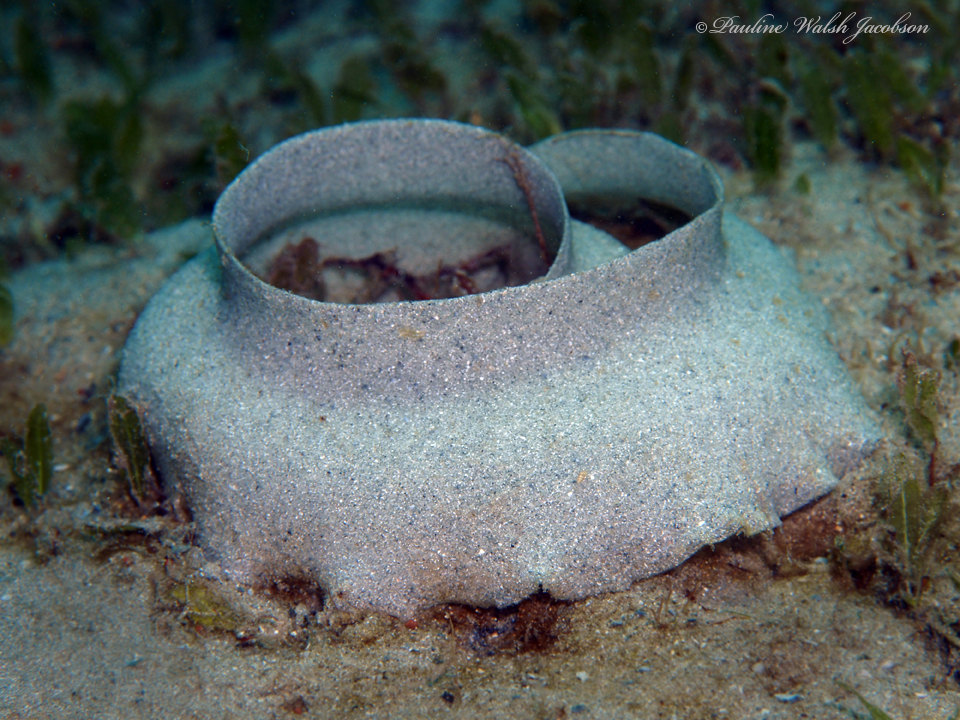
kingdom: Animalia
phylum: Mollusca
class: Gastropoda
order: Littorinimorpha
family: Naticidae
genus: Naticarius
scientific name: Naticarius canrena
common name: Colorful moonsnail
